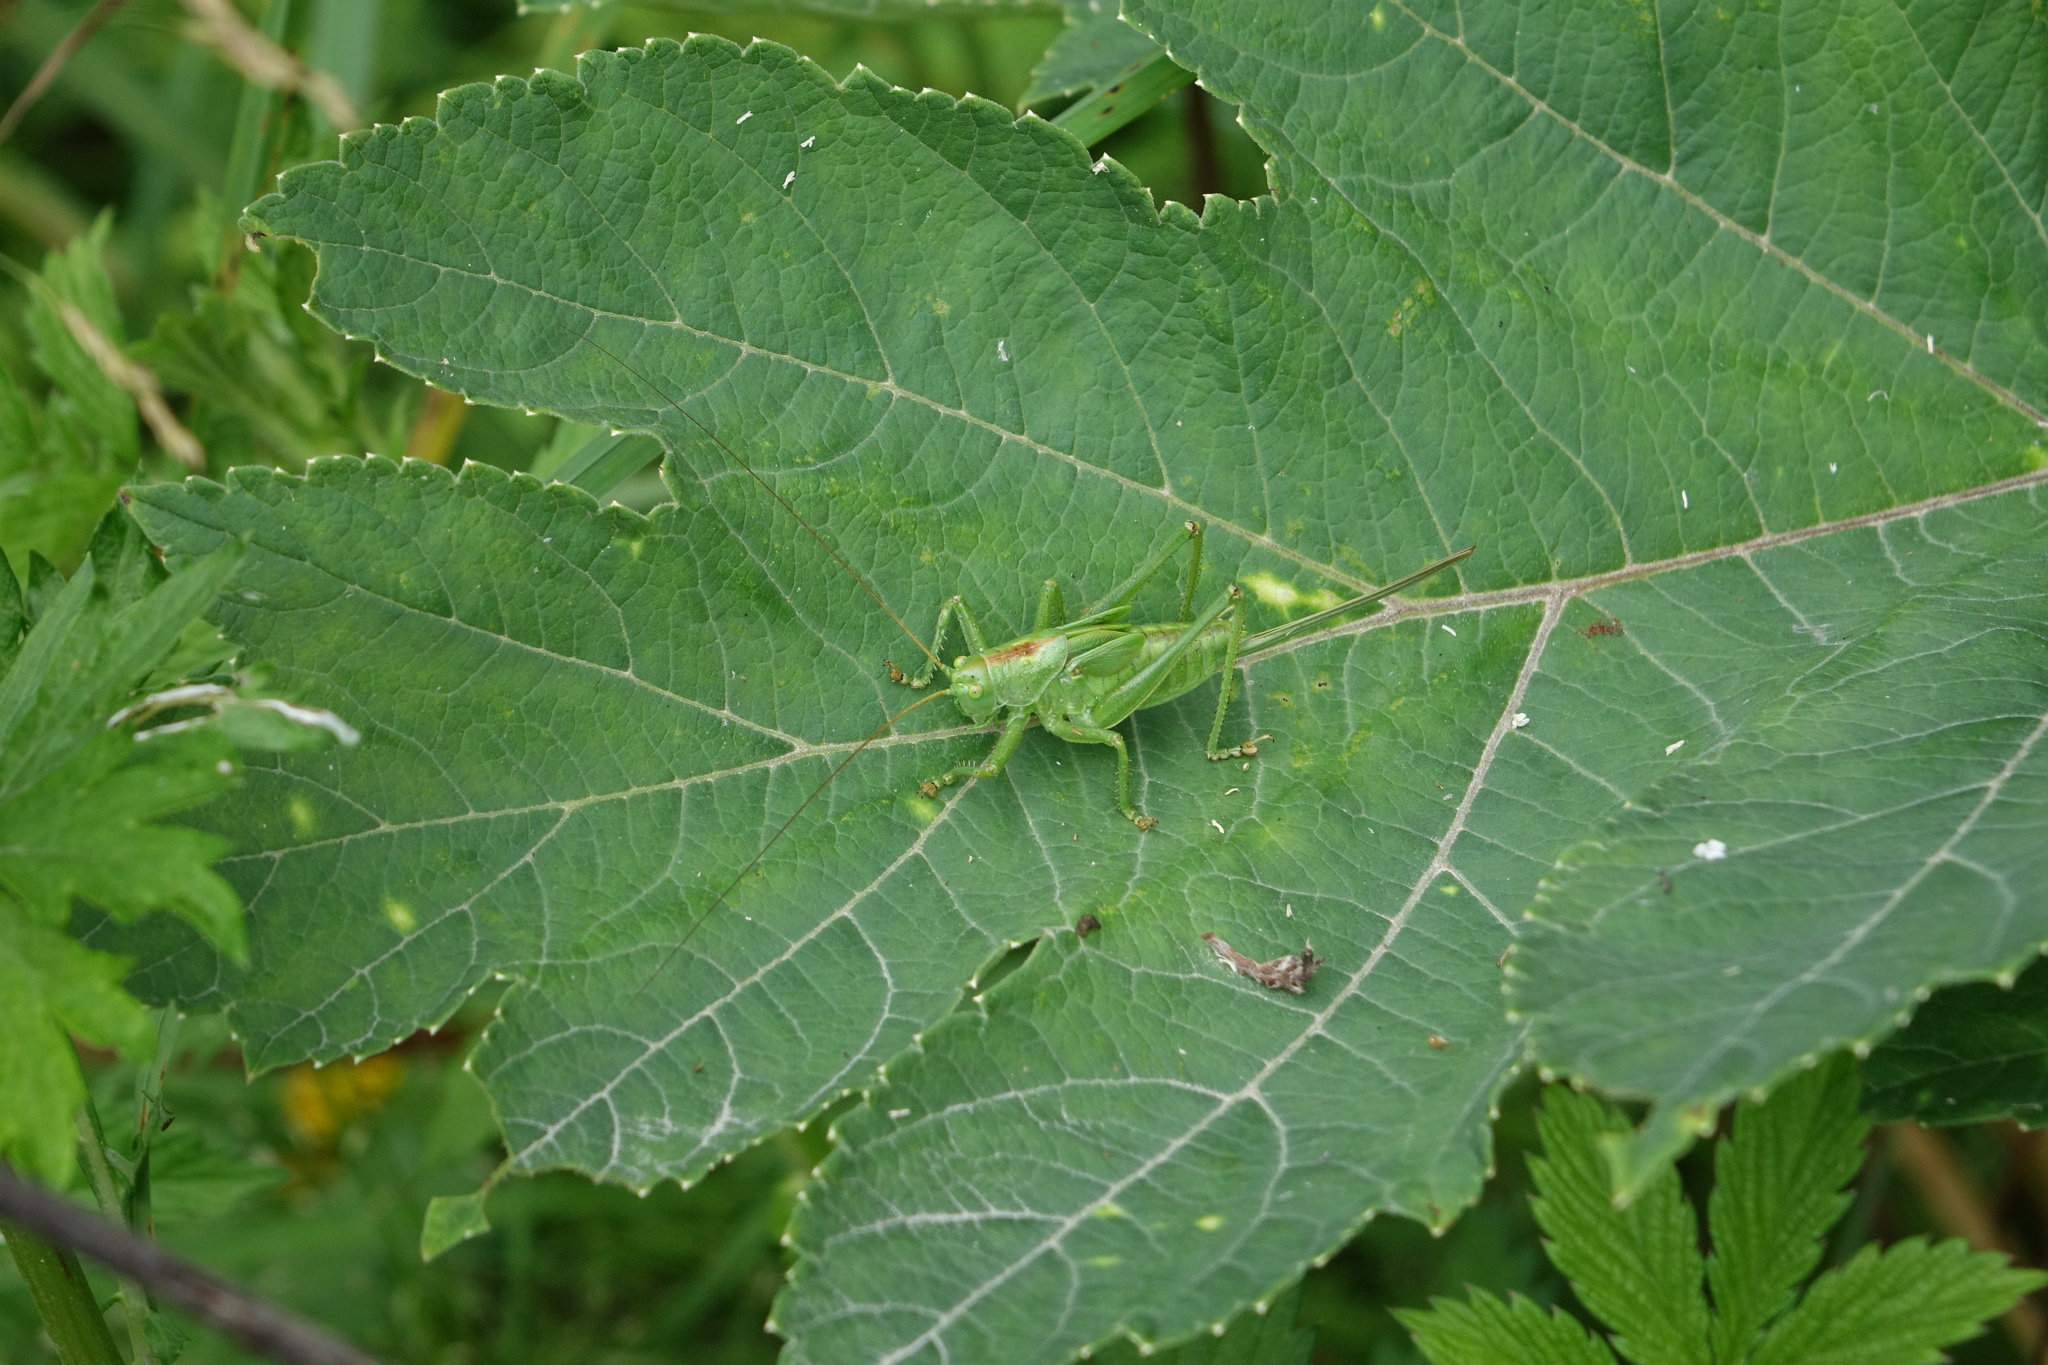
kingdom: Plantae
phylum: Tracheophyta
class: Magnoliopsida
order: Apiales
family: Apiaceae
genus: Heracleum
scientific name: Heracleum dissectum
